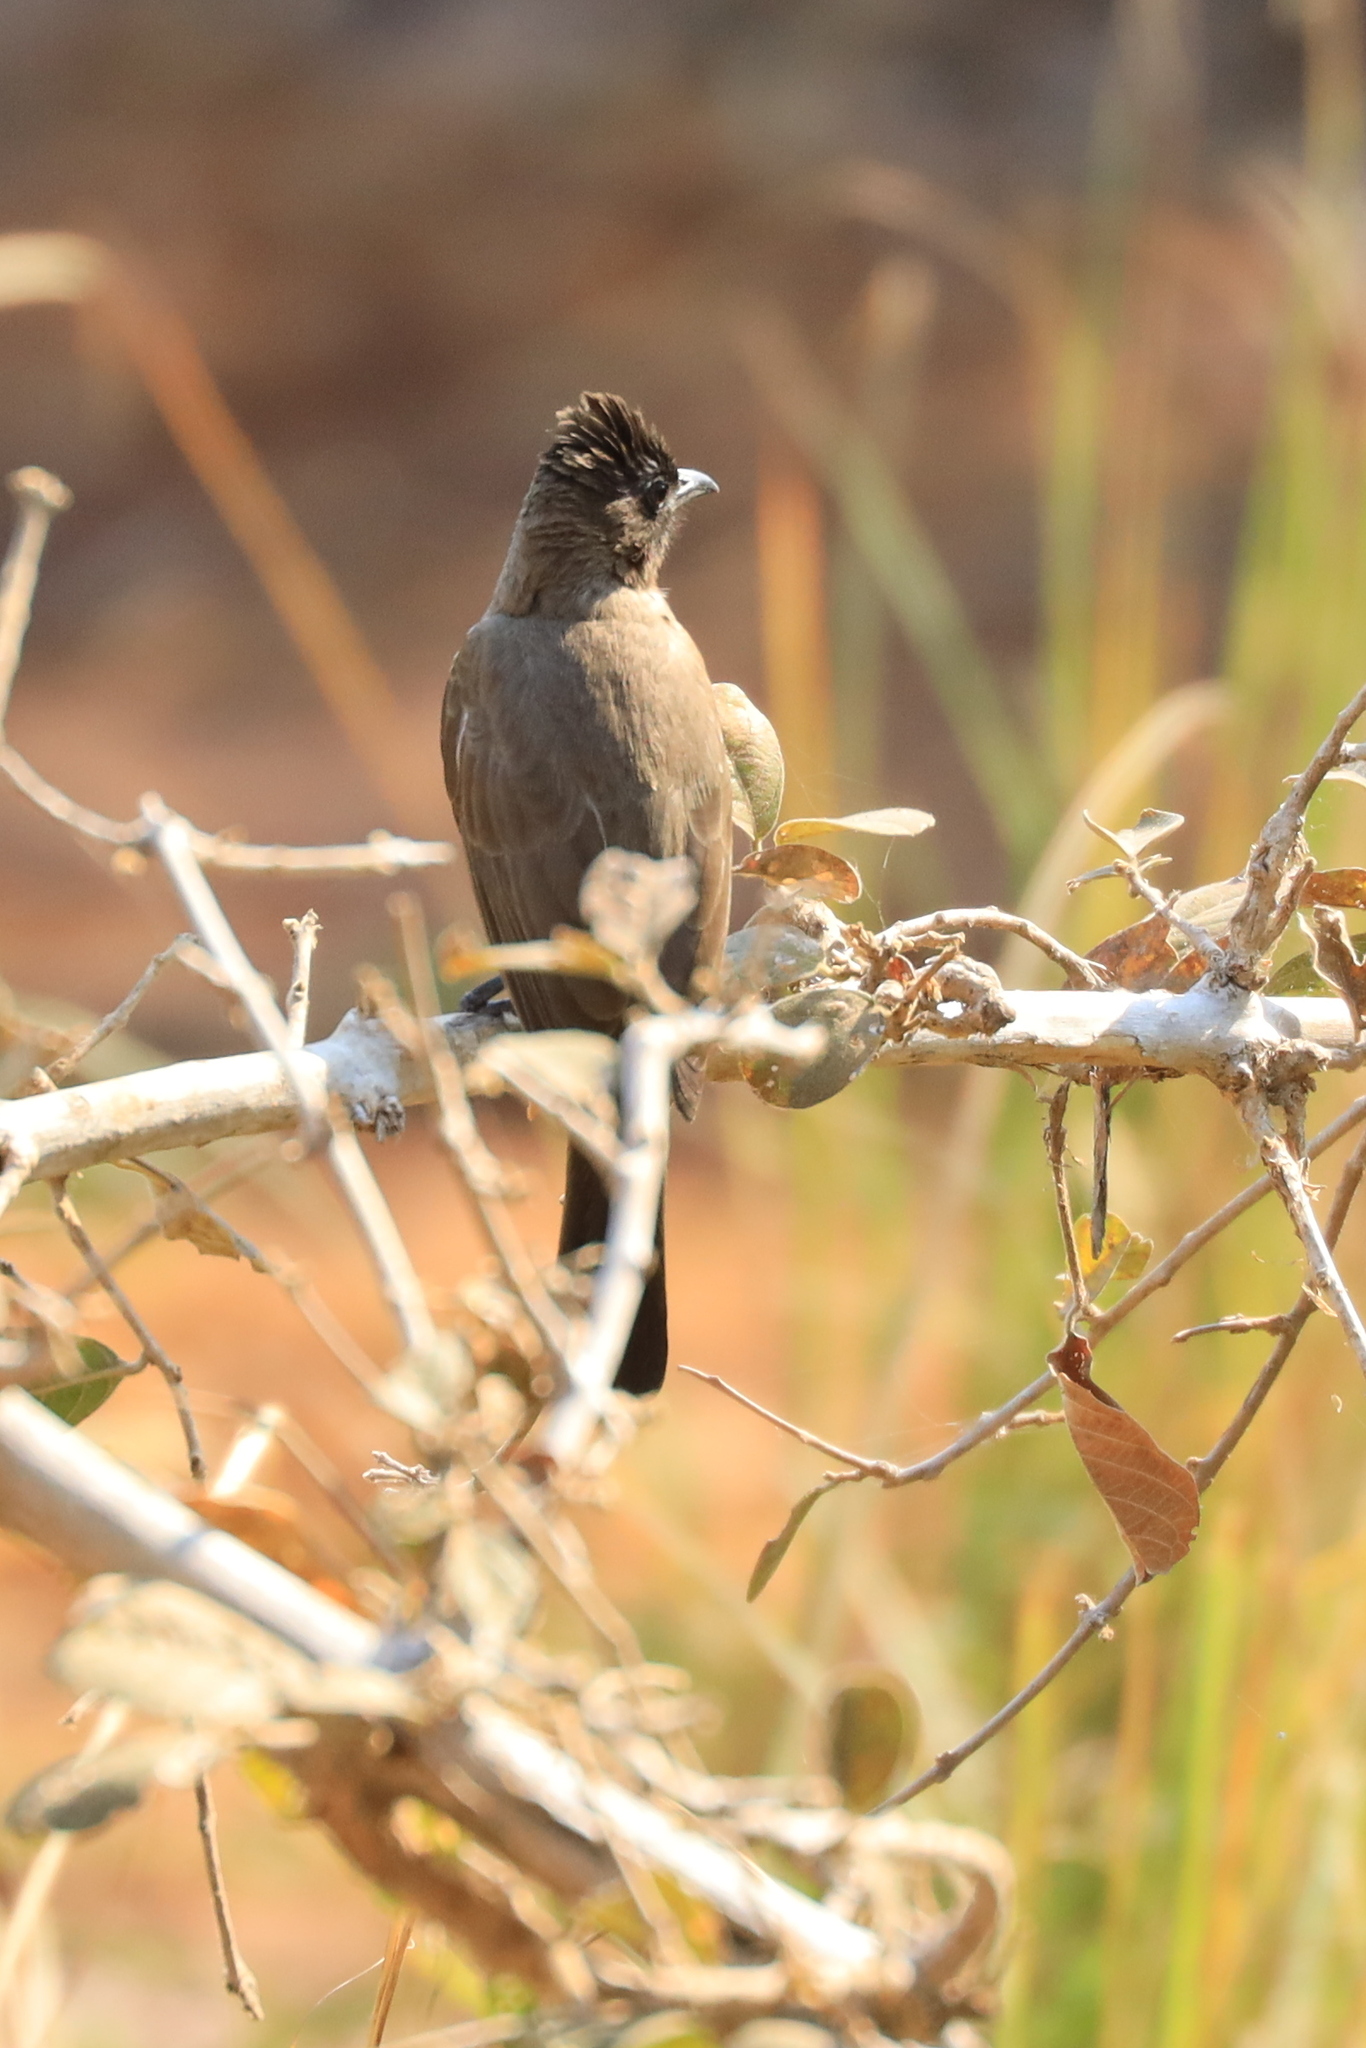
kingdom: Animalia
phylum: Chordata
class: Aves
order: Passeriformes
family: Pycnonotidae
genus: Pycnonotus
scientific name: Pycnonotus barbatus
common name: Common bulbul
